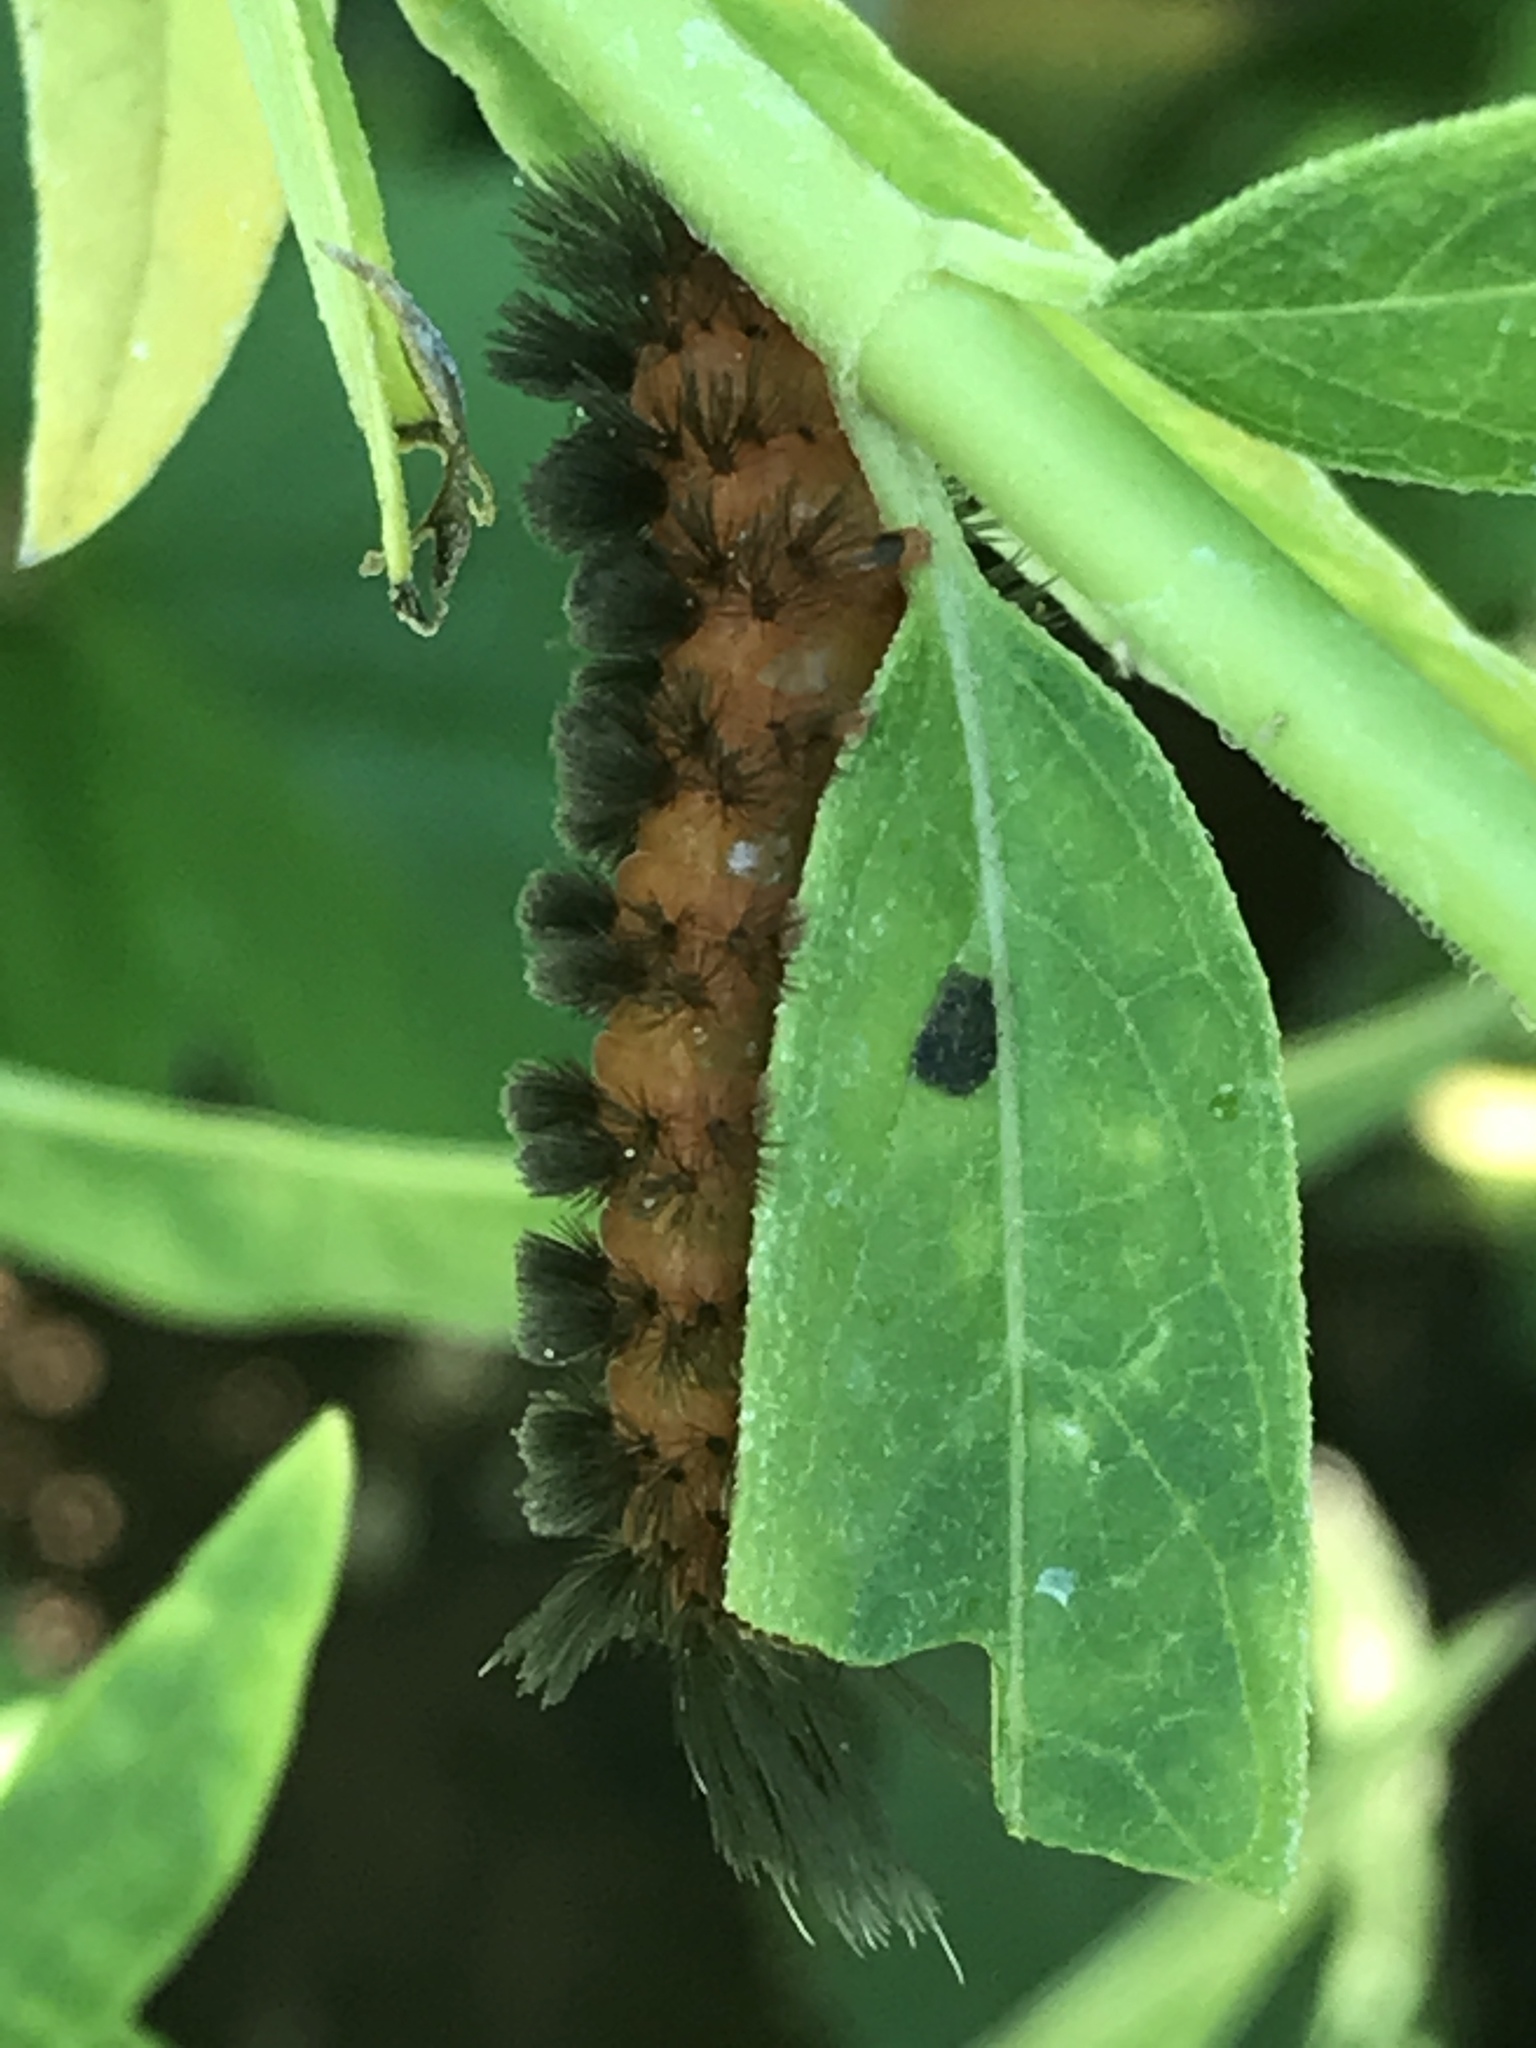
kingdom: Animalia
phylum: Arthropoda
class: Insecta
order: Lepidoptera
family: Erebidae
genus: Cycnia
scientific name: Cycnia collaris
